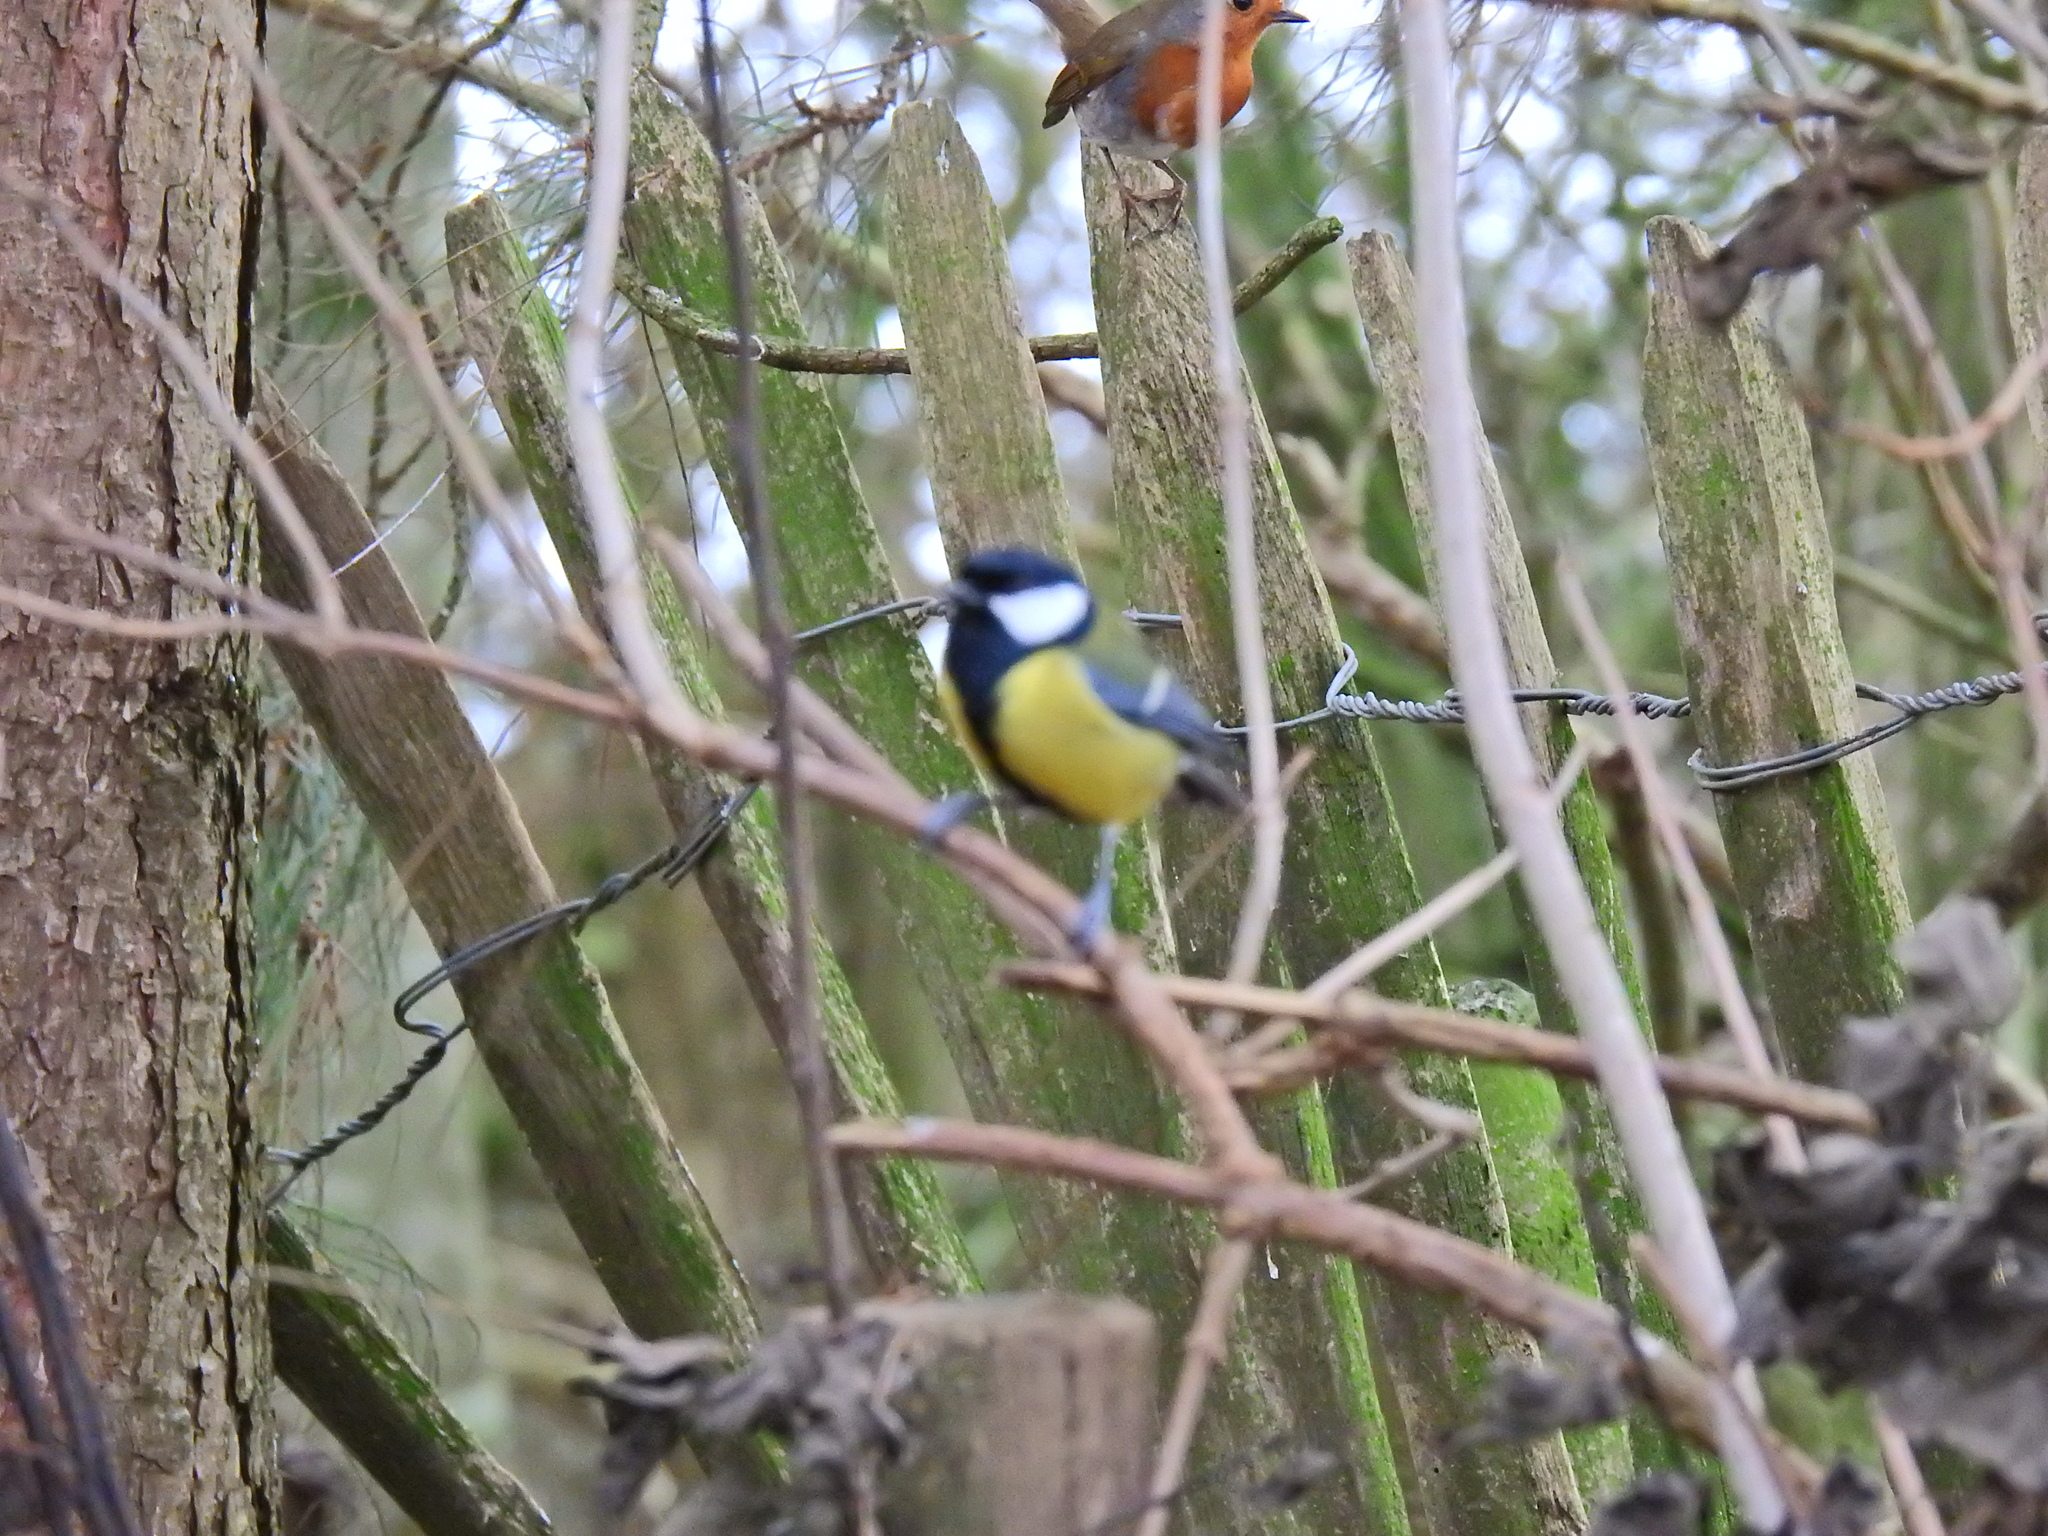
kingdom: Animalia
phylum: Chordata
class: Aves
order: Passeriformes
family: Paridae
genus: Parus
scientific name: Parus major
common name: Great tit
